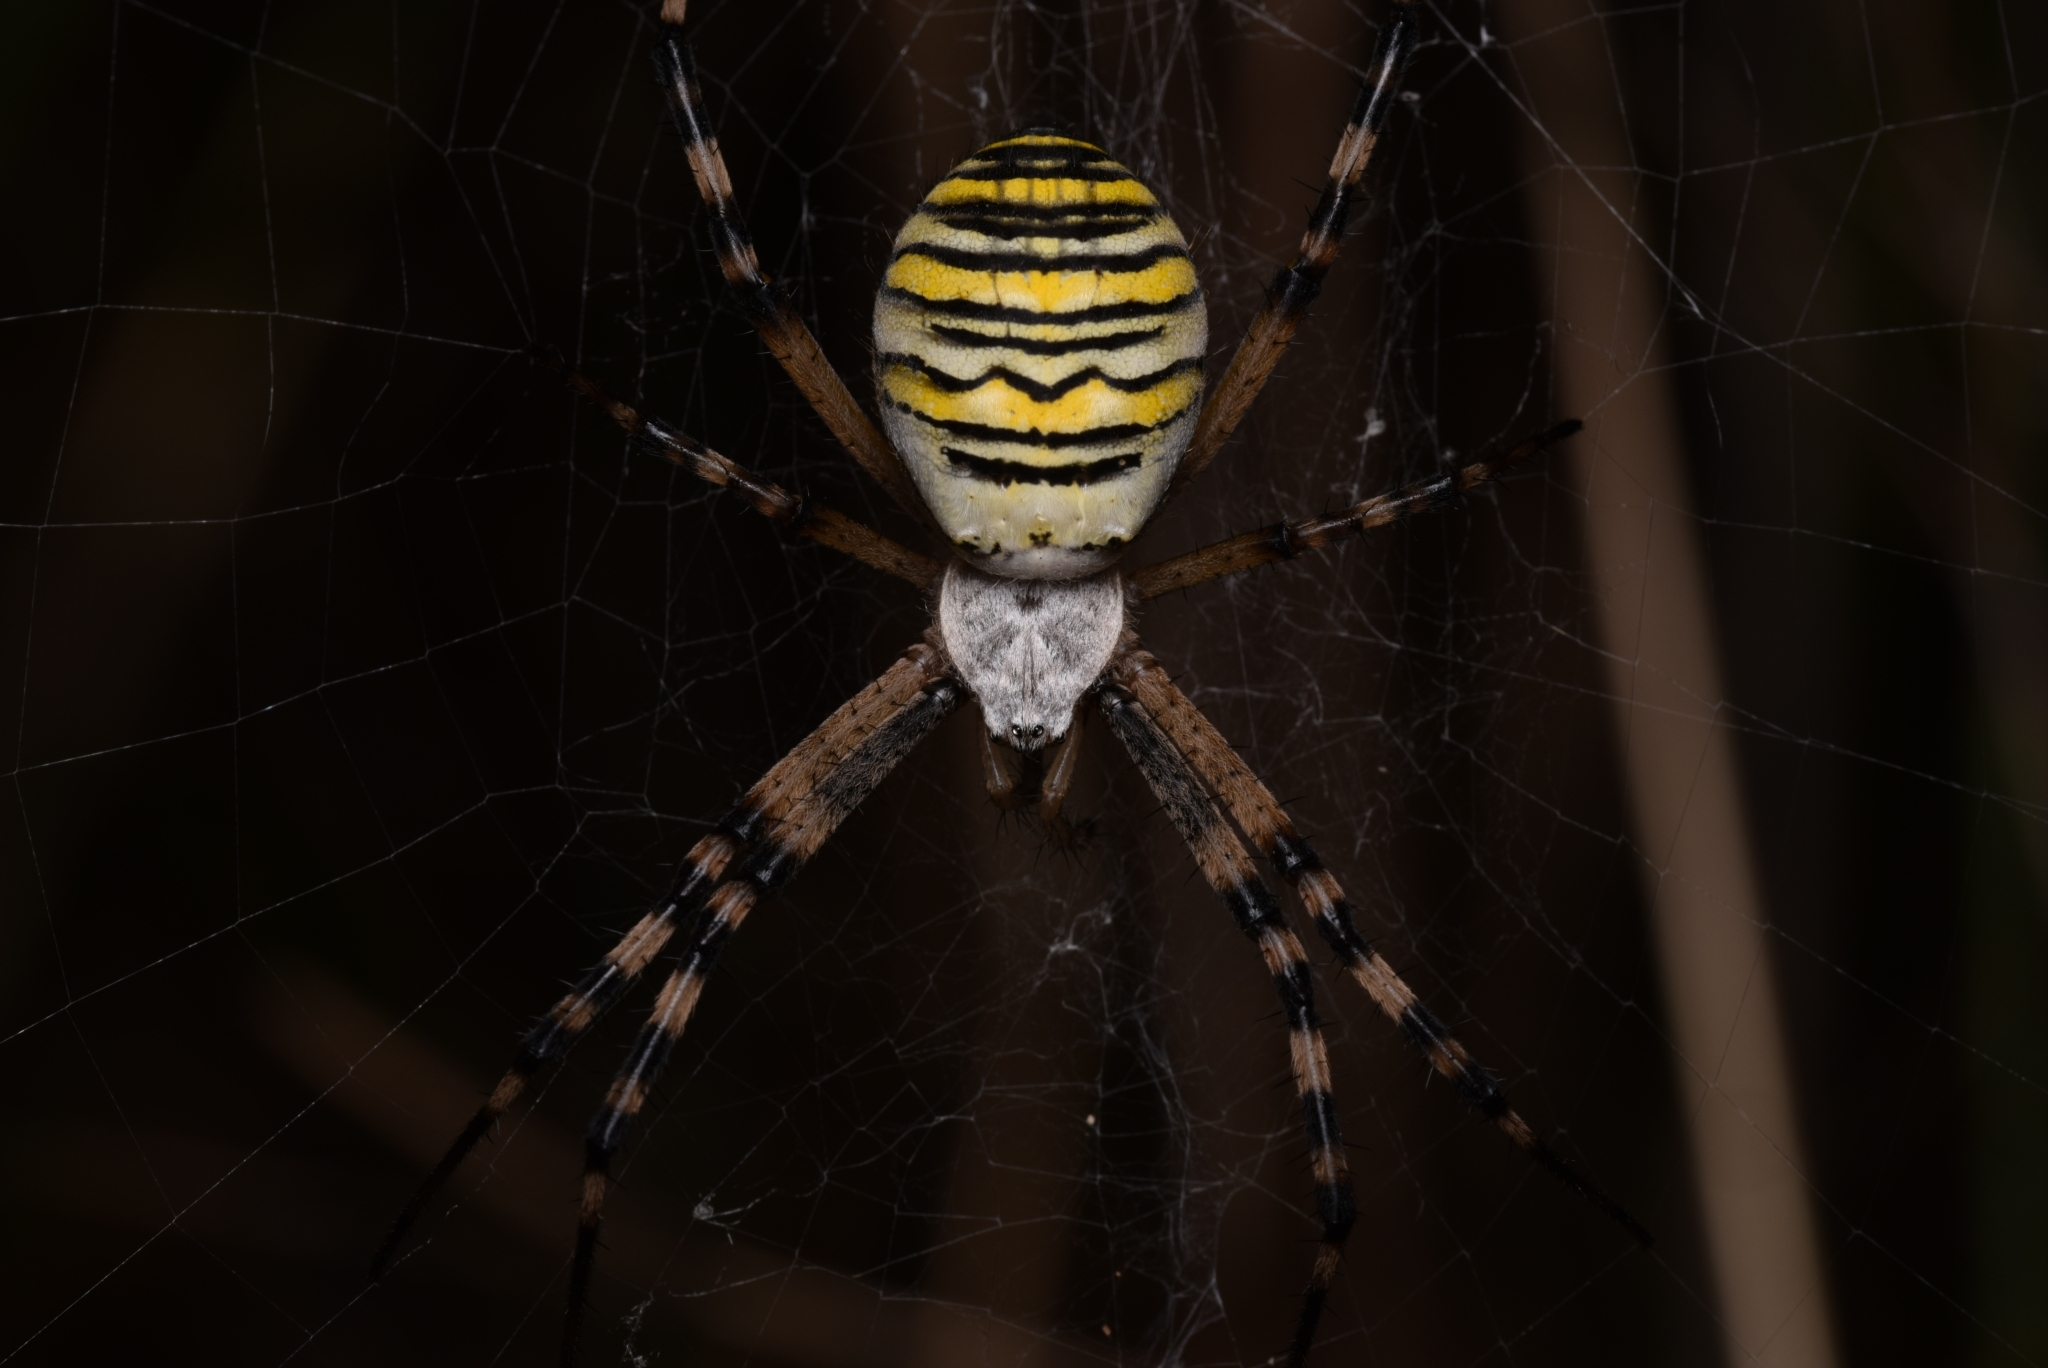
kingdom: Animalia
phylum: Arthropoda
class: Arachnida
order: Araneae
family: Araneidae
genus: Argiope
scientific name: Argiope bruennichi
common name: Wasp spider
